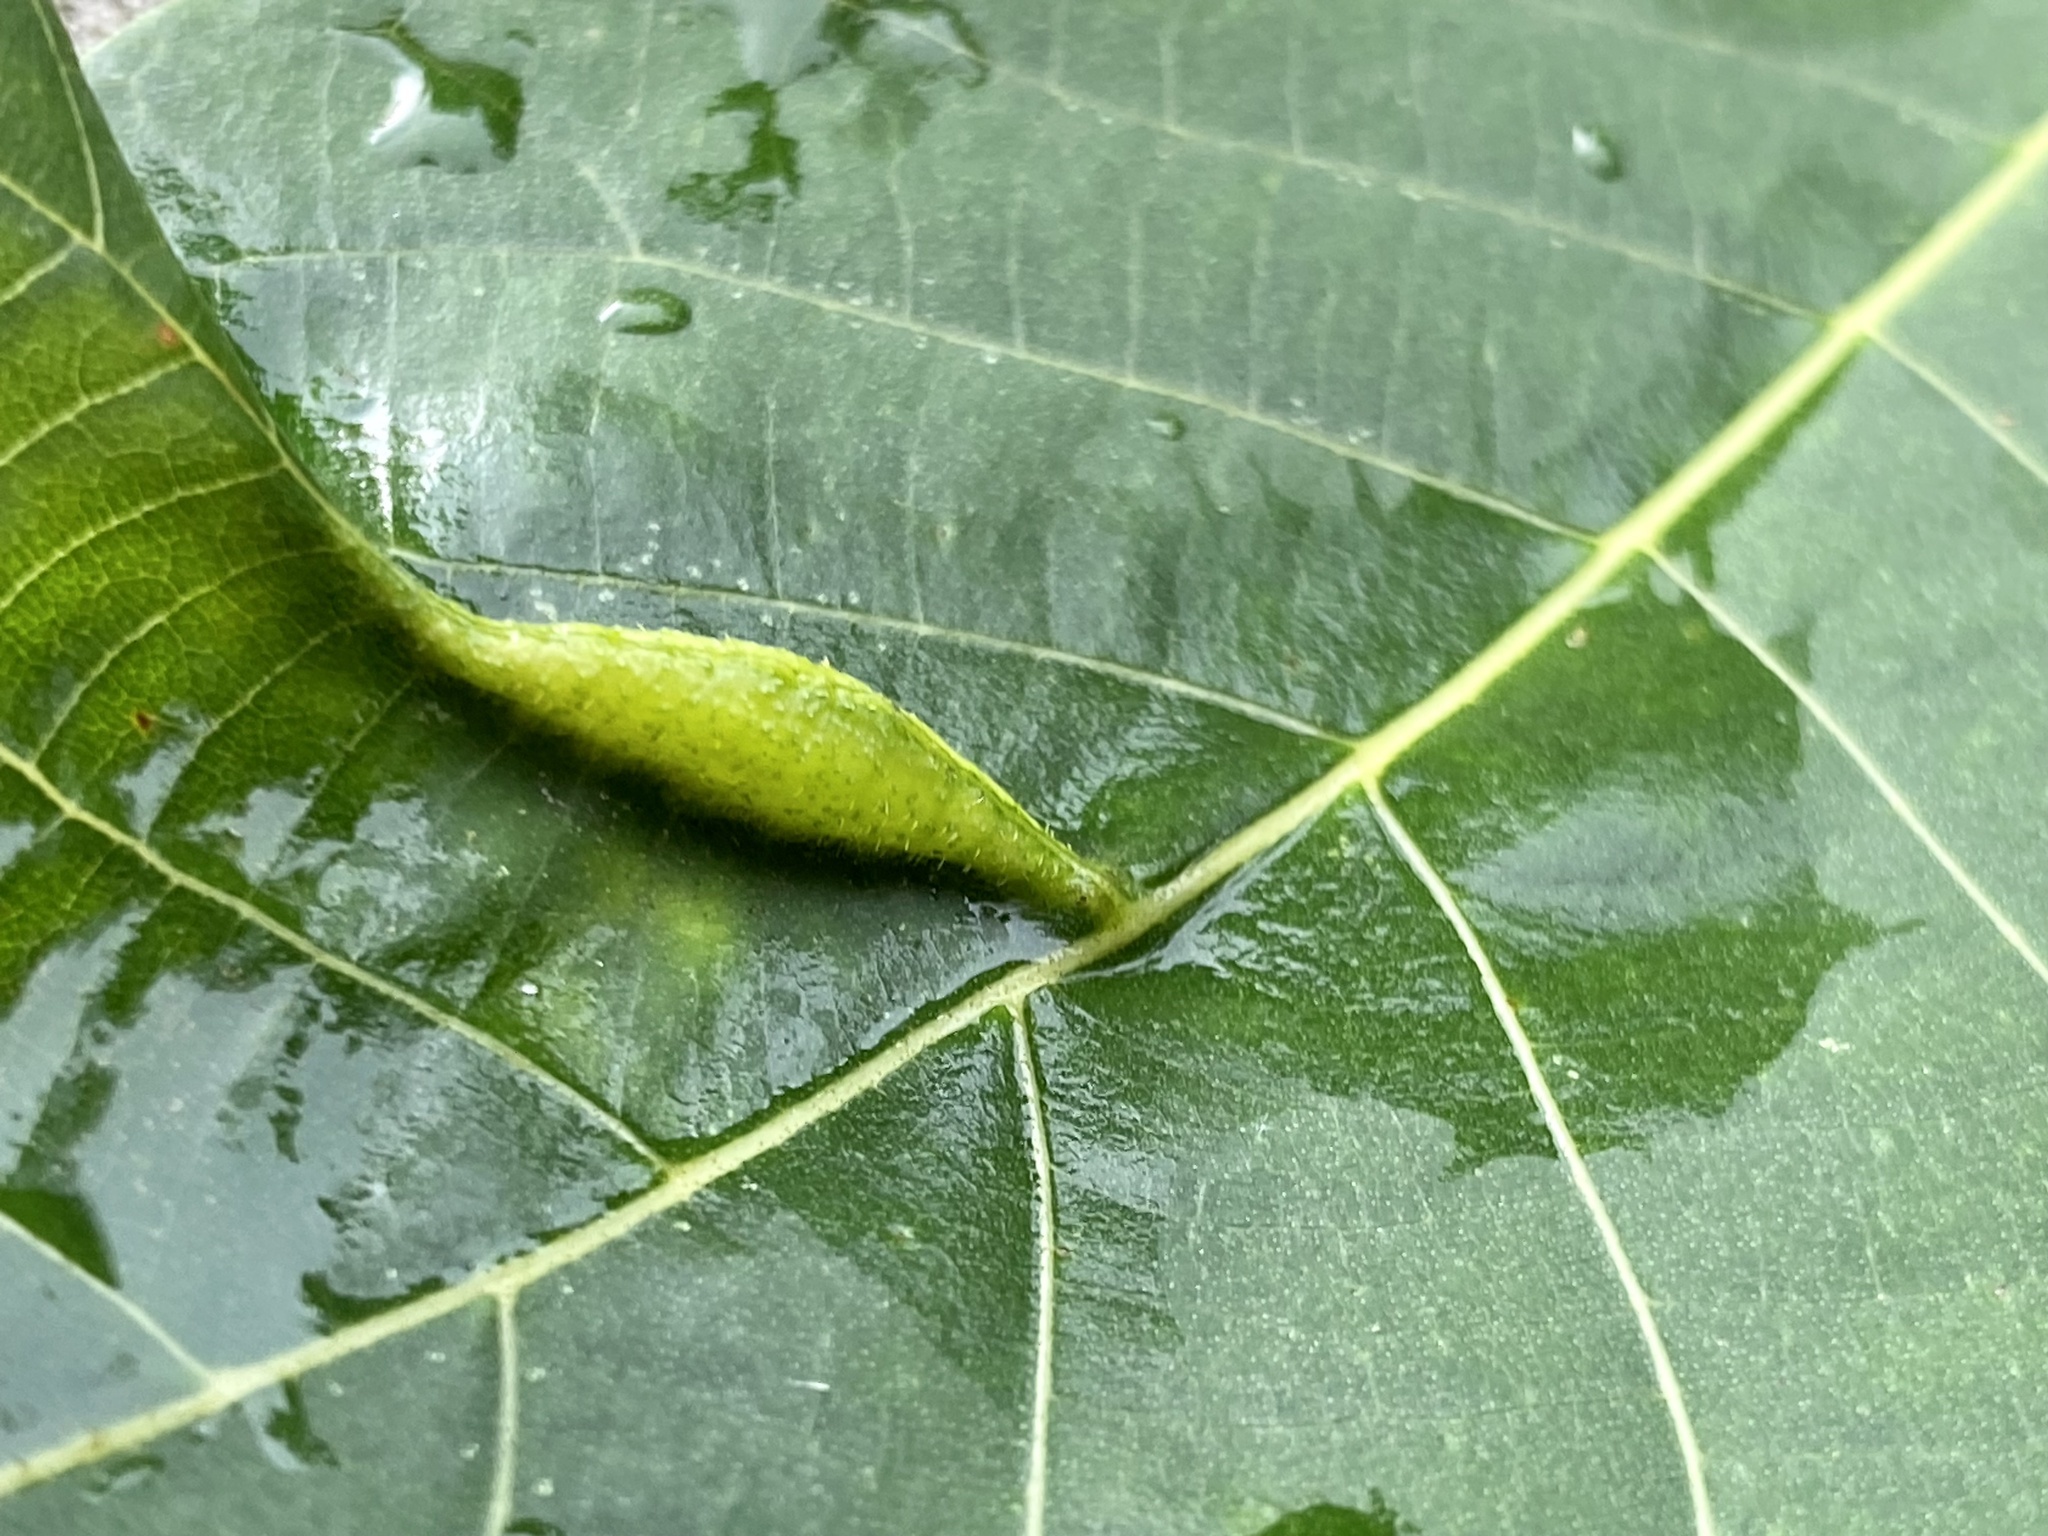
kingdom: Animalia
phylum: Arthropoda
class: Insecta
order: Hemiptera
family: Phylloxeridae
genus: Phylloxera
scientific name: Phylloxera caryaevenae
